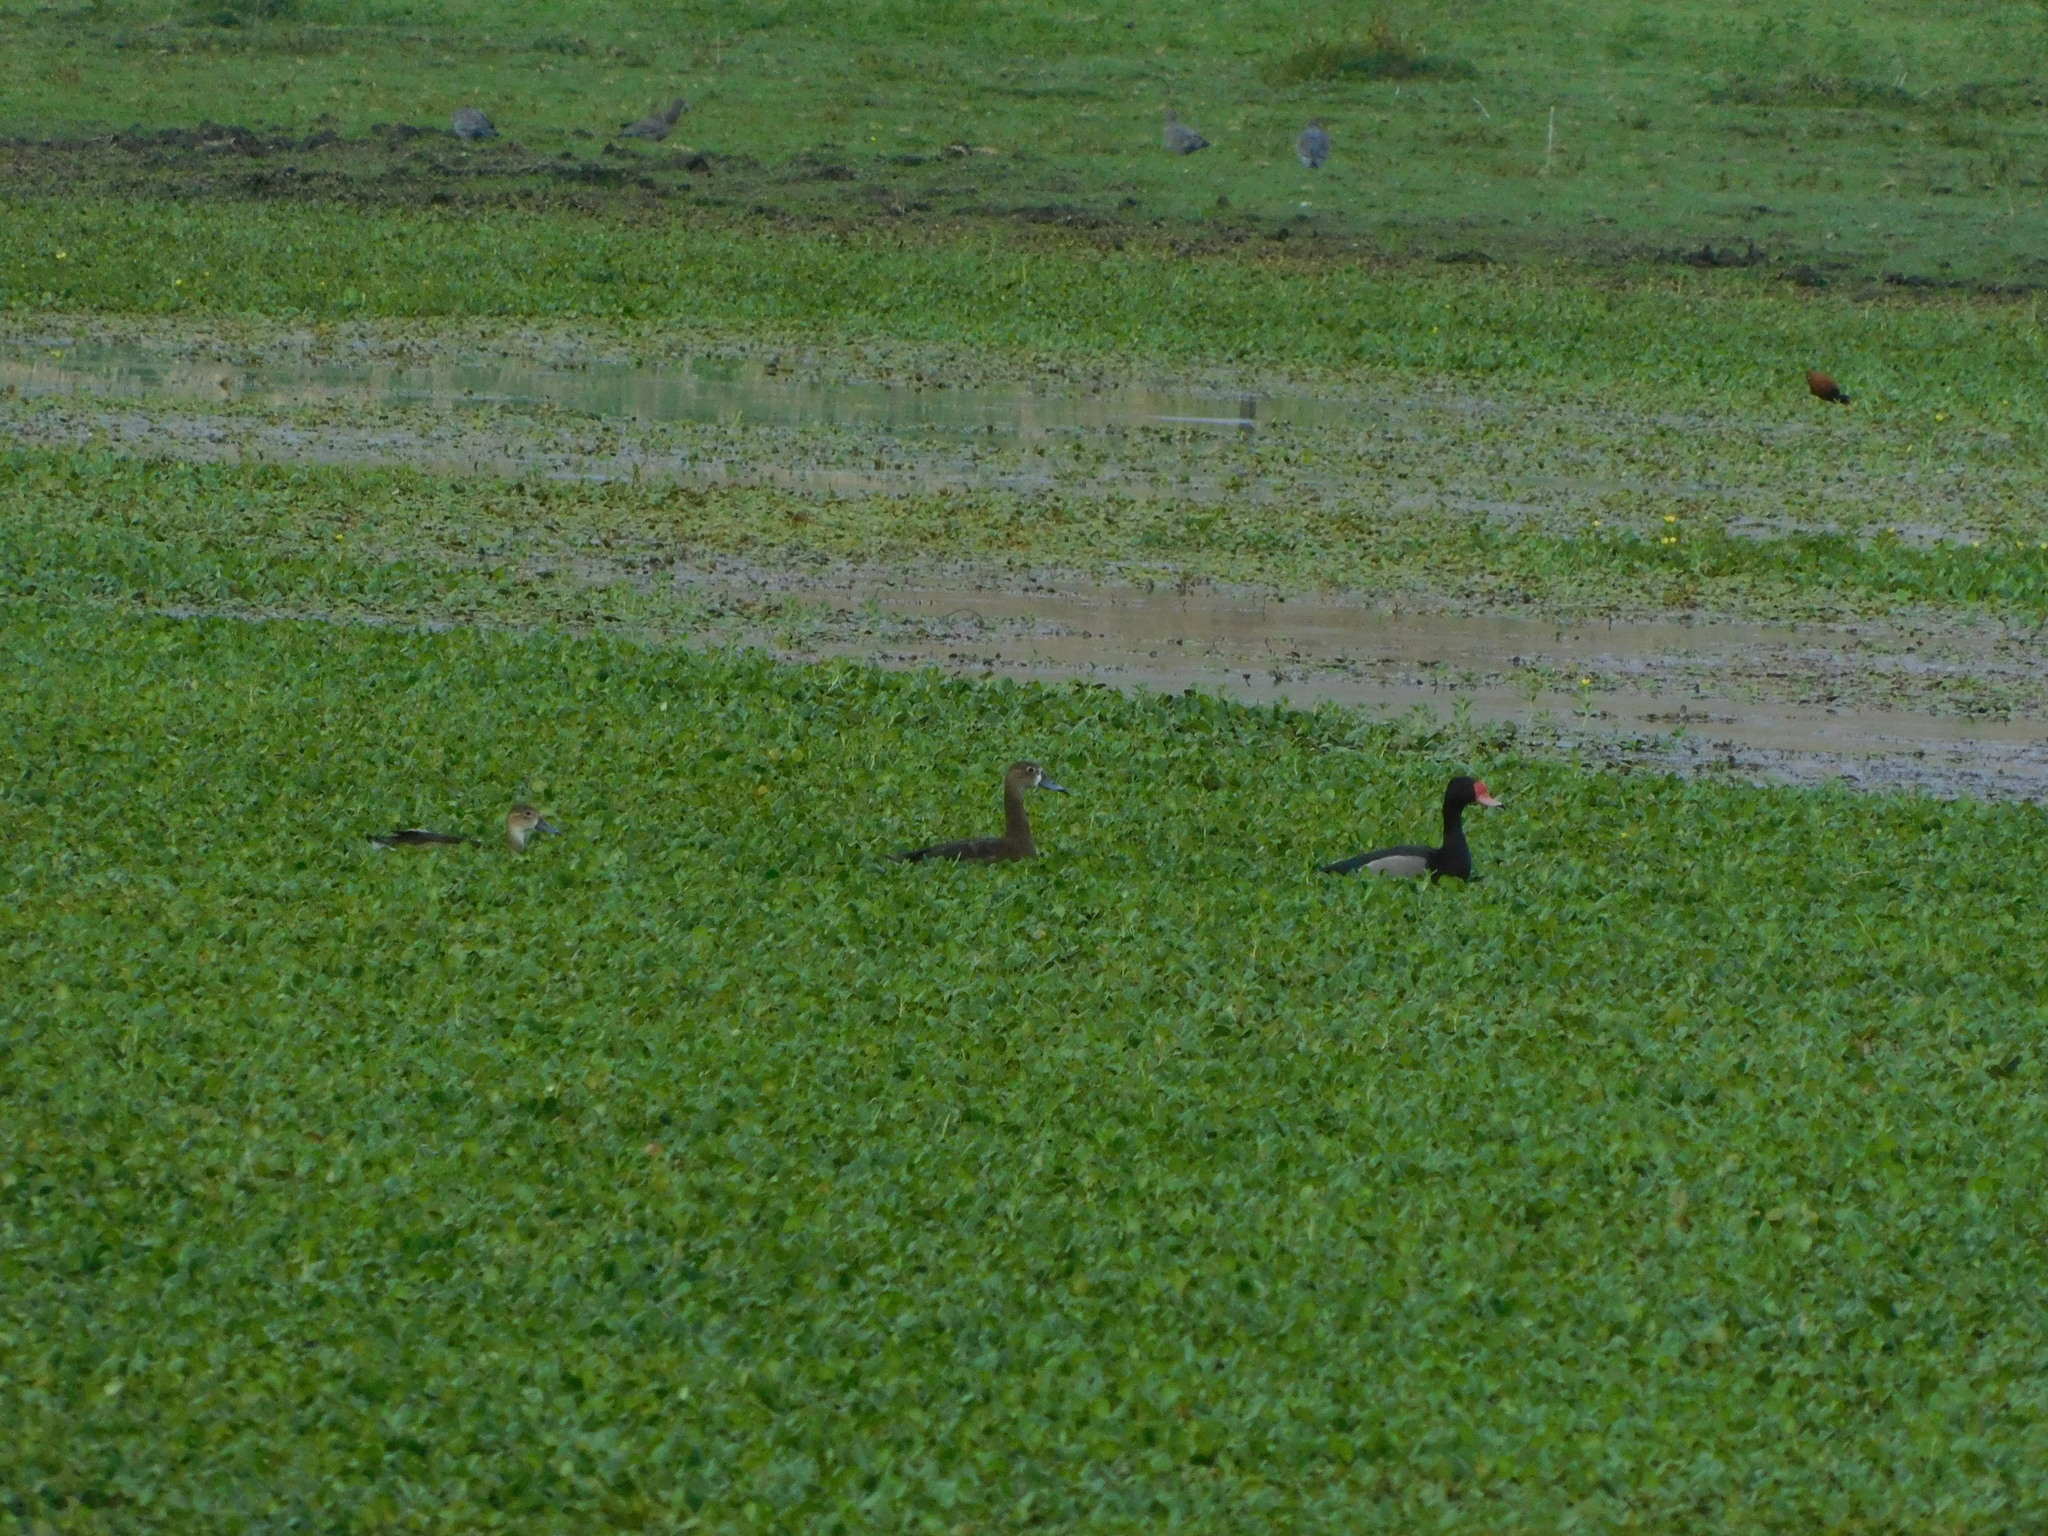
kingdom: Animalia
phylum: Chordata
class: Aves
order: Anseriformes
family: Anatidae
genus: Netta
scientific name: Netta peposaca
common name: Rosy-billed pochard
